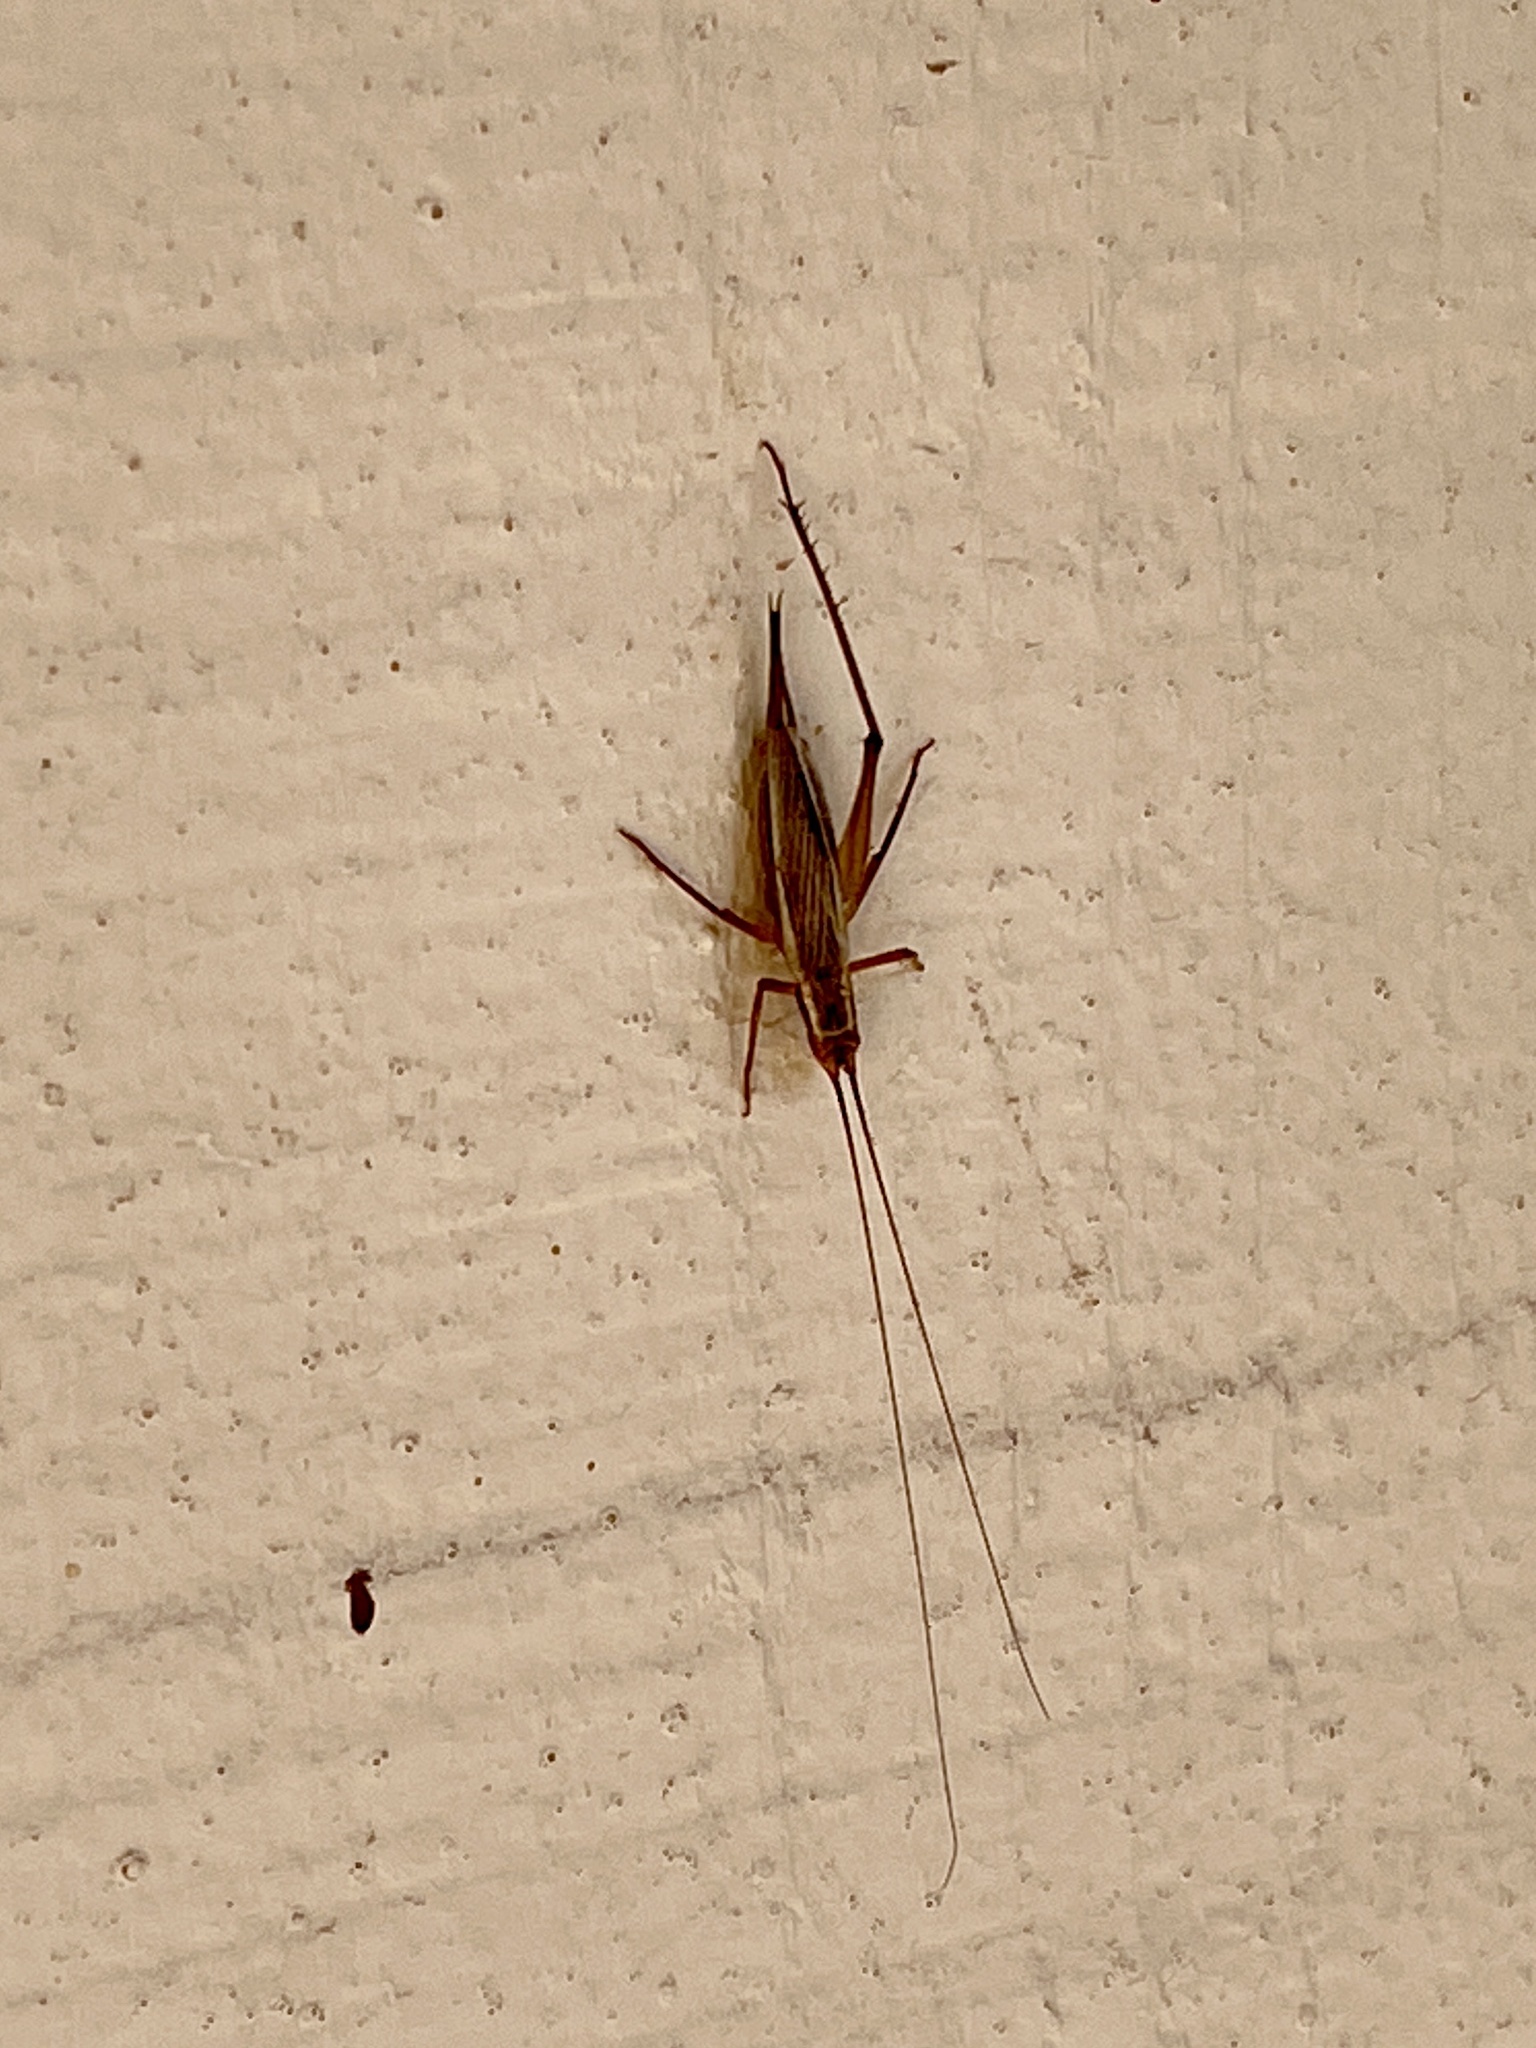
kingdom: Animalia
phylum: Arthropoda
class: Insecta
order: Orthoptera
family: Gryllidae
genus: Oecanthus
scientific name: Oecanthus californicus
